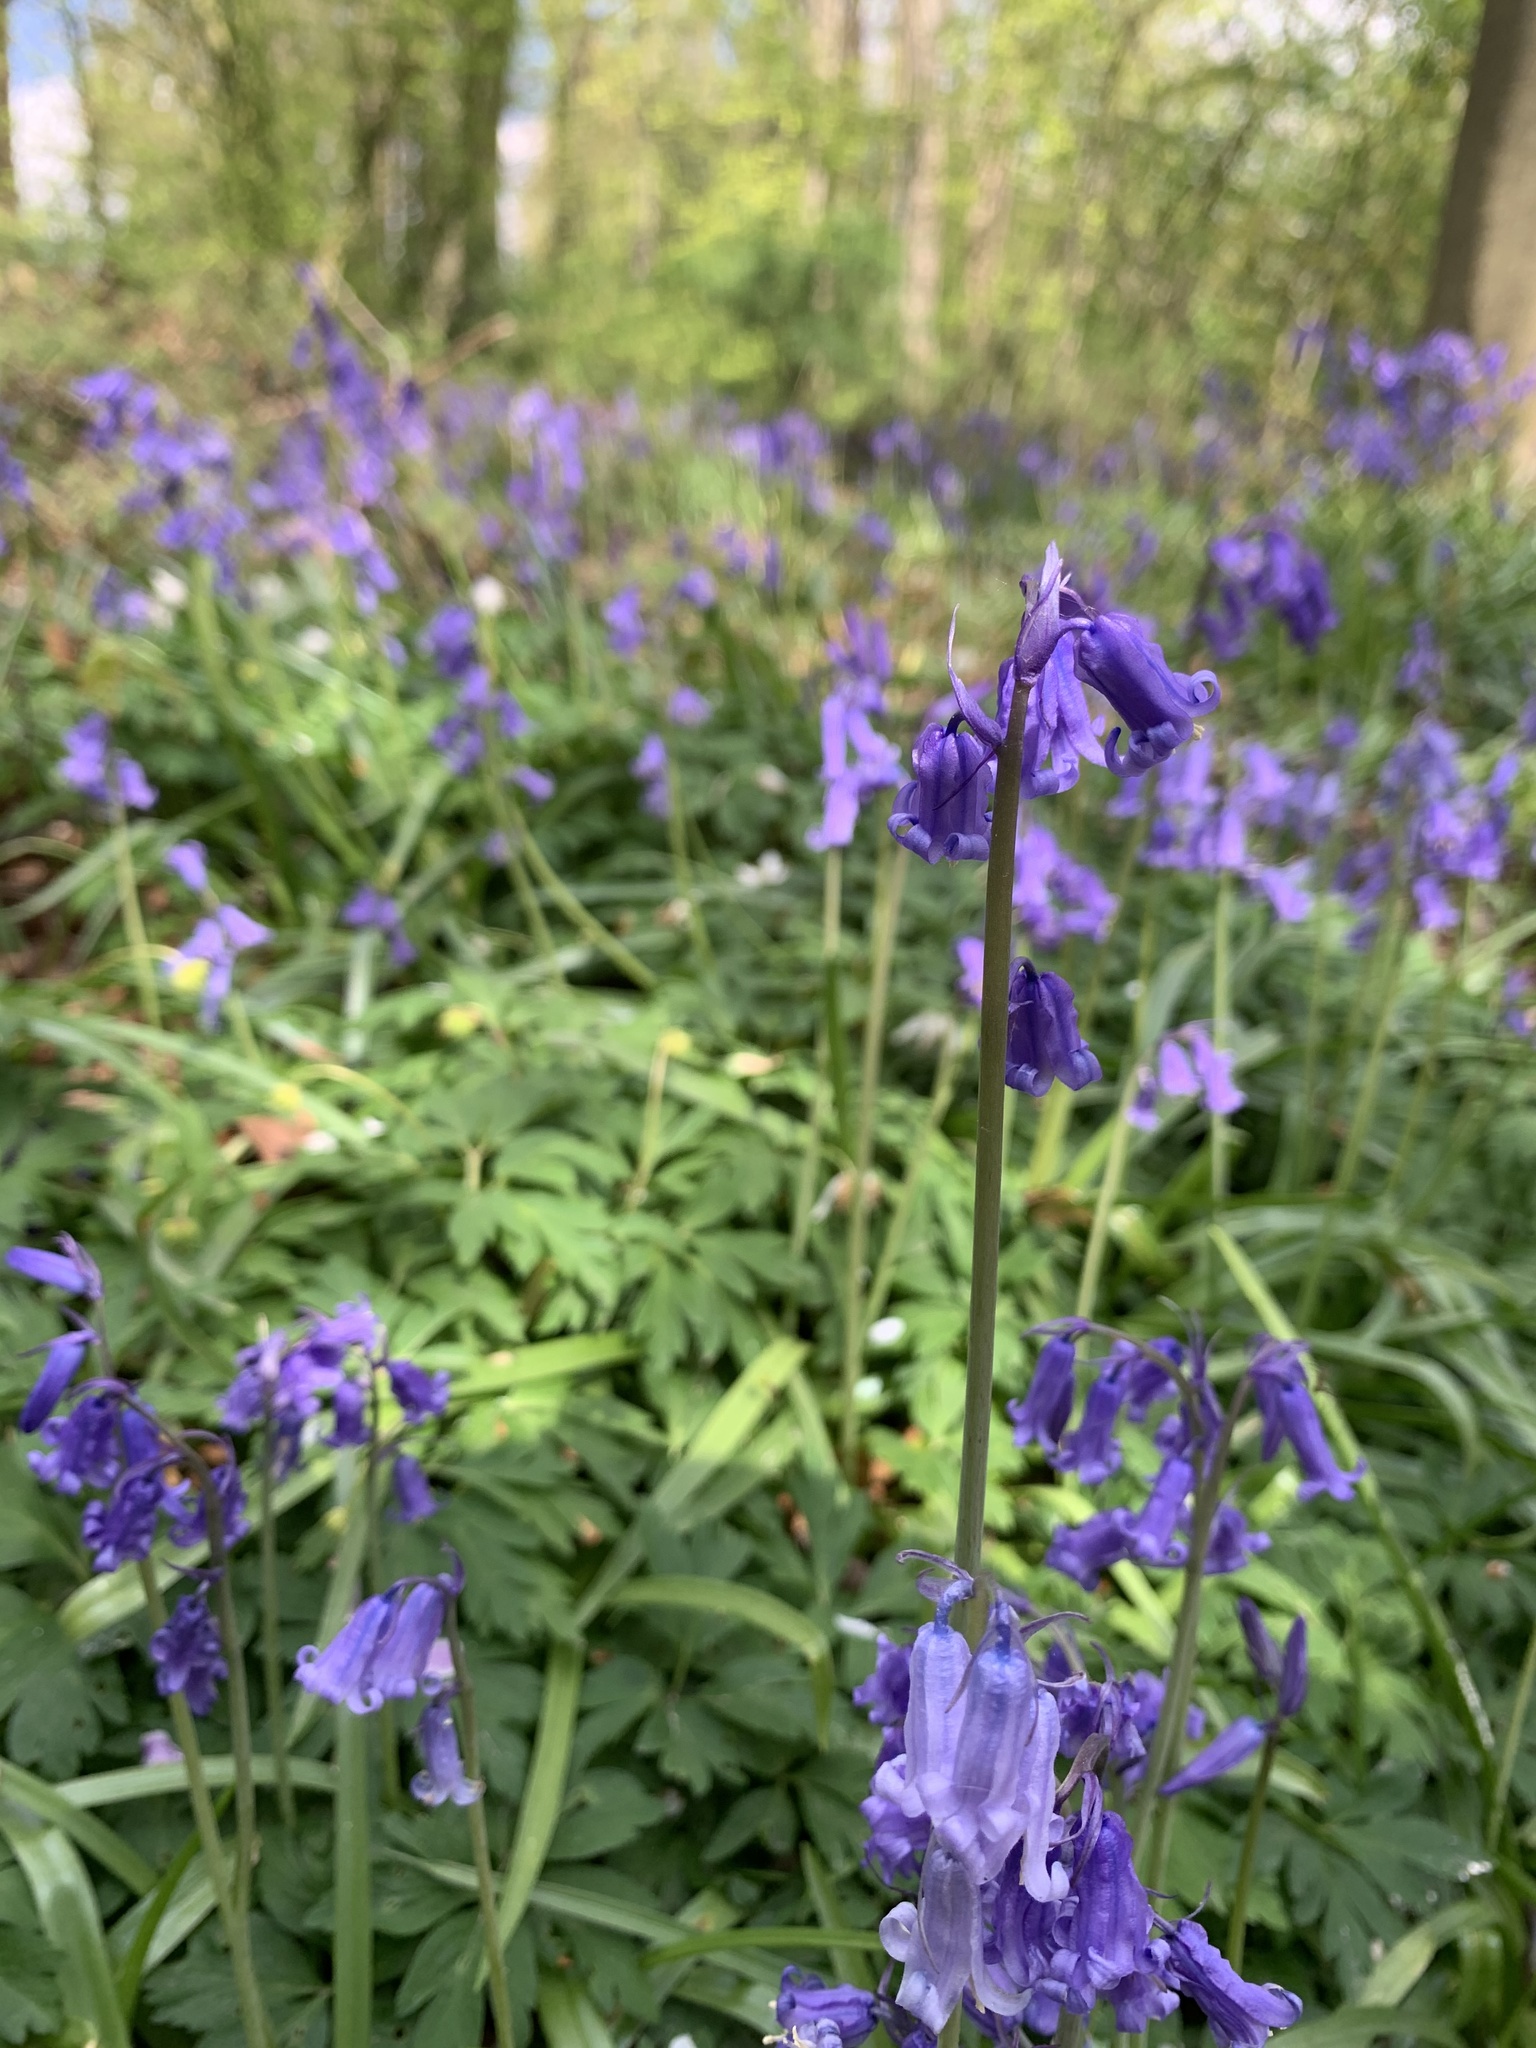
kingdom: Plantae
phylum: Tracheophyta
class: Liliopsida
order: Asparagales
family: Asparagaceae
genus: Hyacinthoides
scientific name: Hyacinthoides non-scripta
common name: Bluebell
